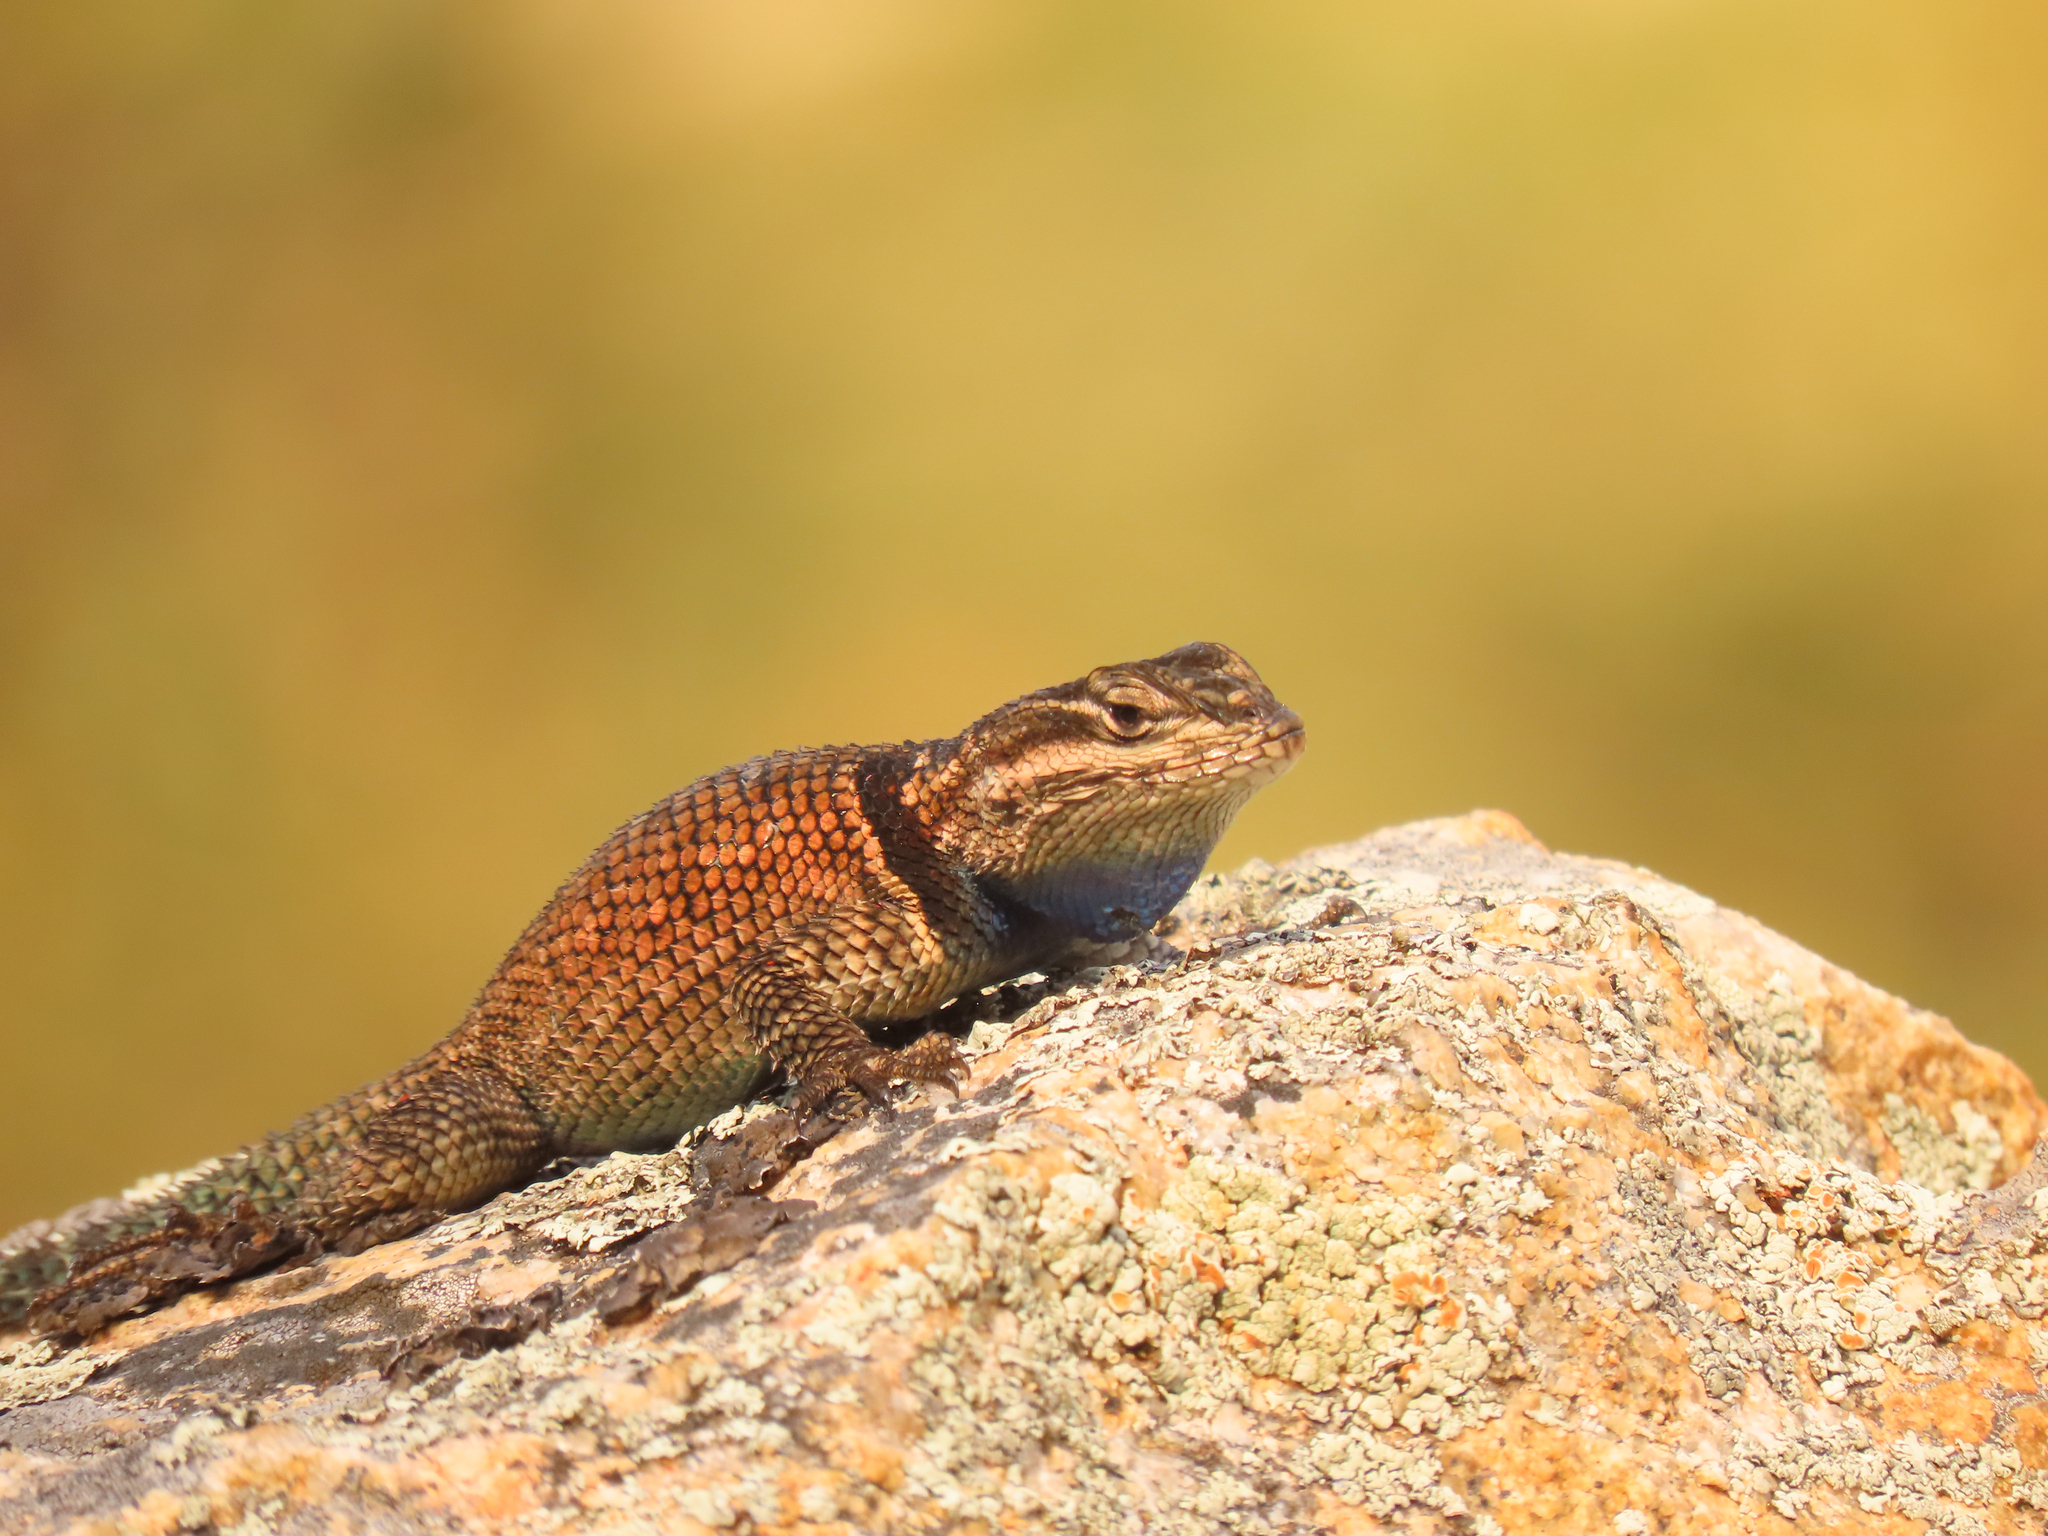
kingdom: Animalia
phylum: Chordata
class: Squamata
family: Phrynosomatidae
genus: Sceloporus
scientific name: Sceloporus jarrovii
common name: Yarrow's spiny lizard
